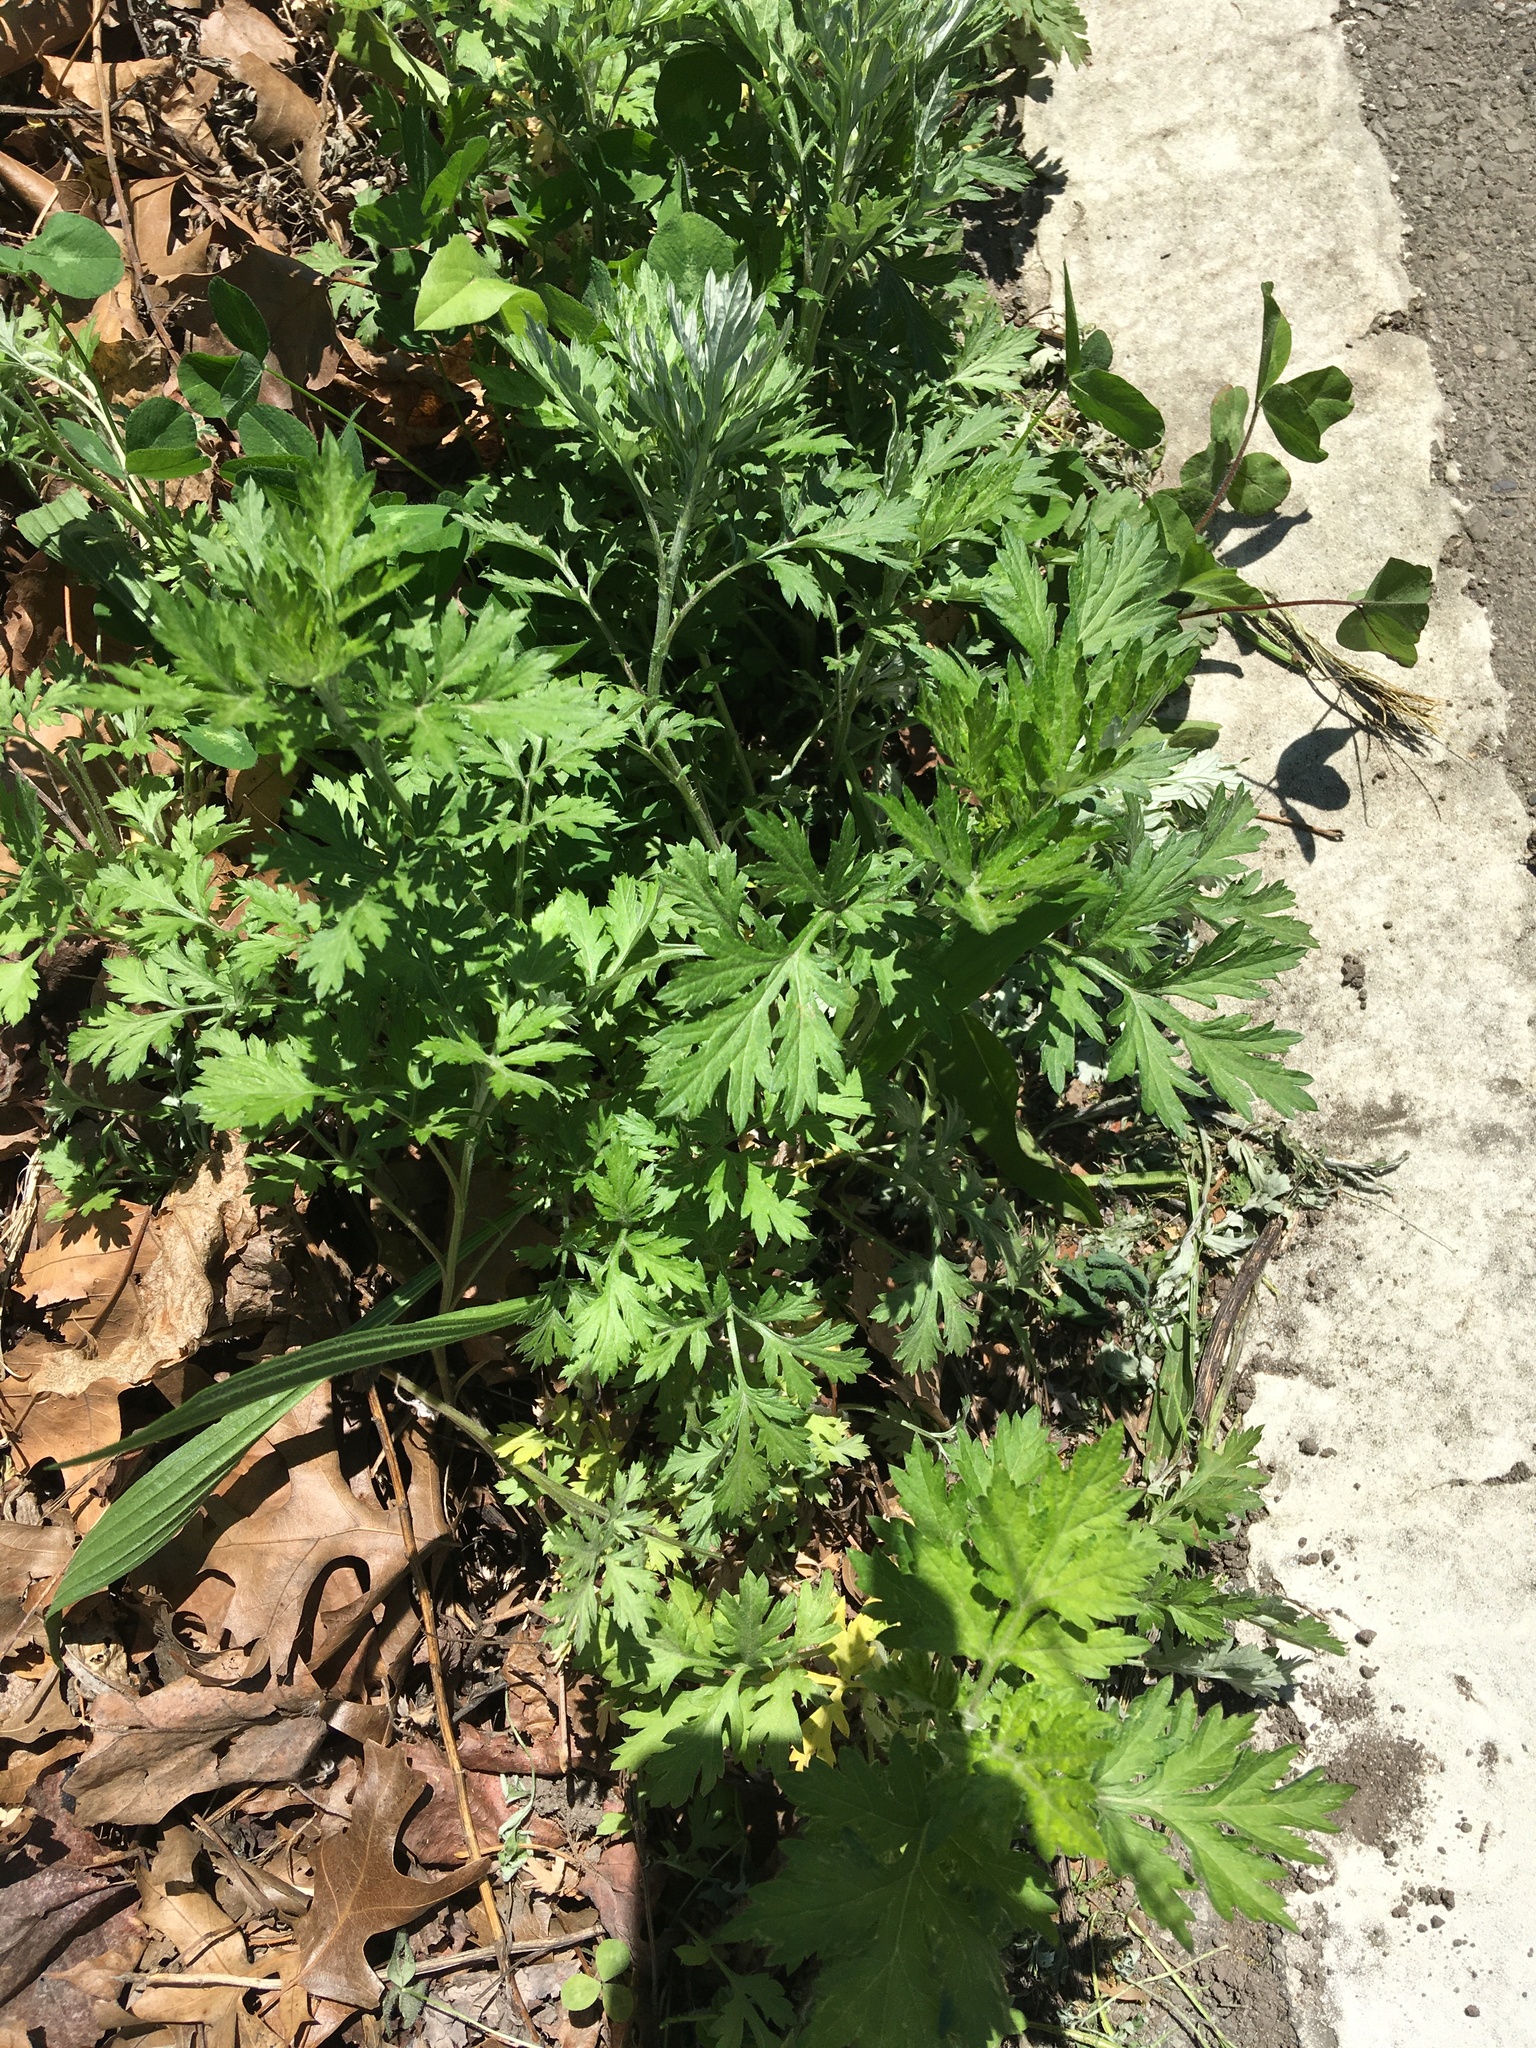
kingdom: Plantae
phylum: Tracheophyta
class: Magnoliopsida
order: Asterales
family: Asteraceae
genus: Artemisia
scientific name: Artemisia vulgaris
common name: Mugwort
